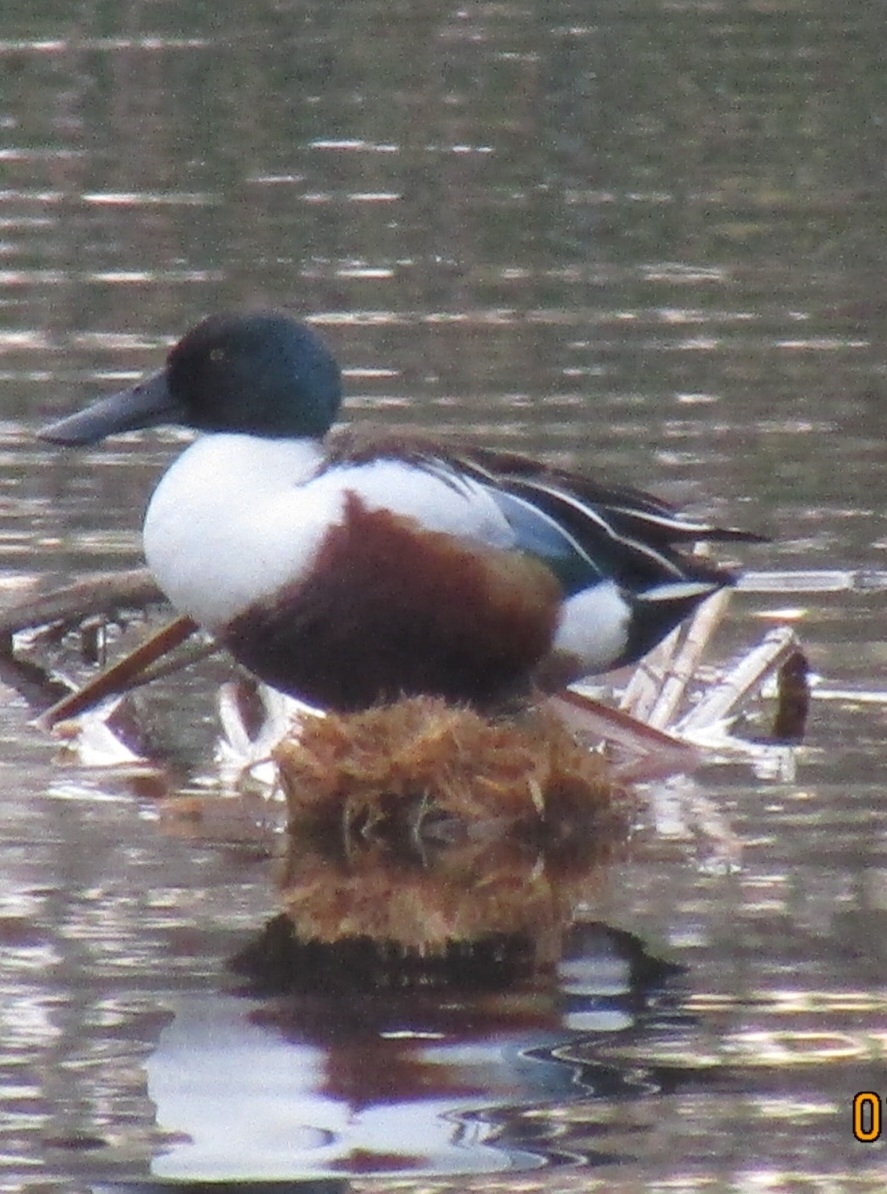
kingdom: Animalia
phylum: Chordata
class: Aves
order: Anseriformes
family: Anatidae
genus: Spatula
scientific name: Spatula clypeata
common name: Northern shoveler
